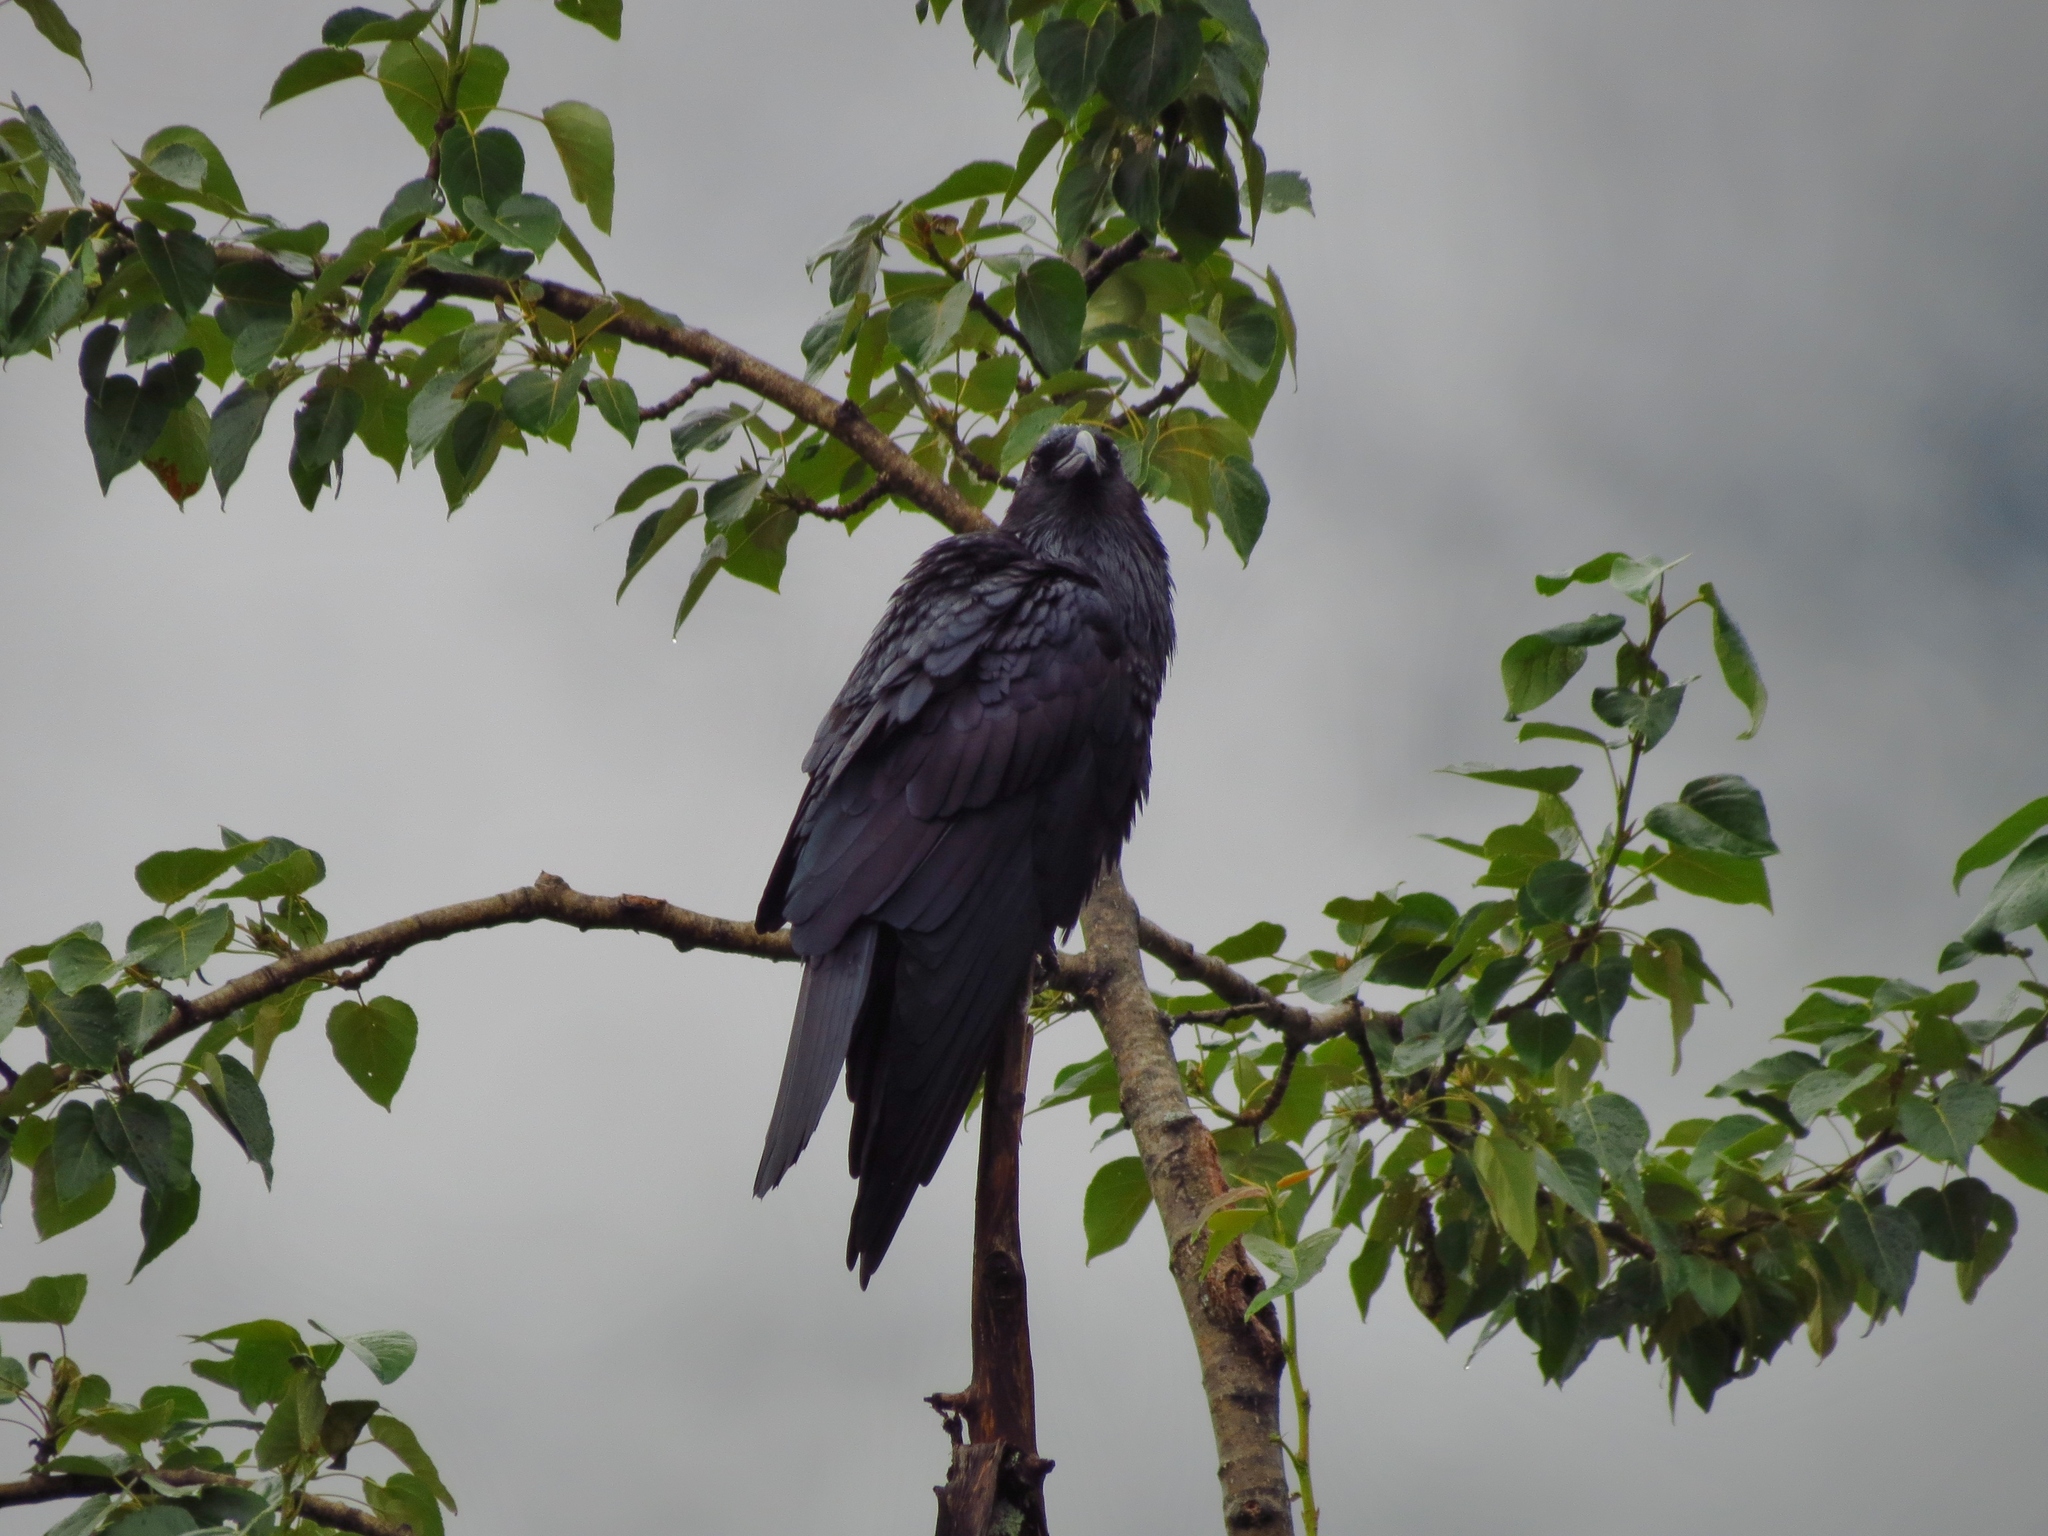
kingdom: Animalia
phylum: Chordata
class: Aves
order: Passeriformes
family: Corvidae
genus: Corvus
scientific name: Corvus corax
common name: Common raven
